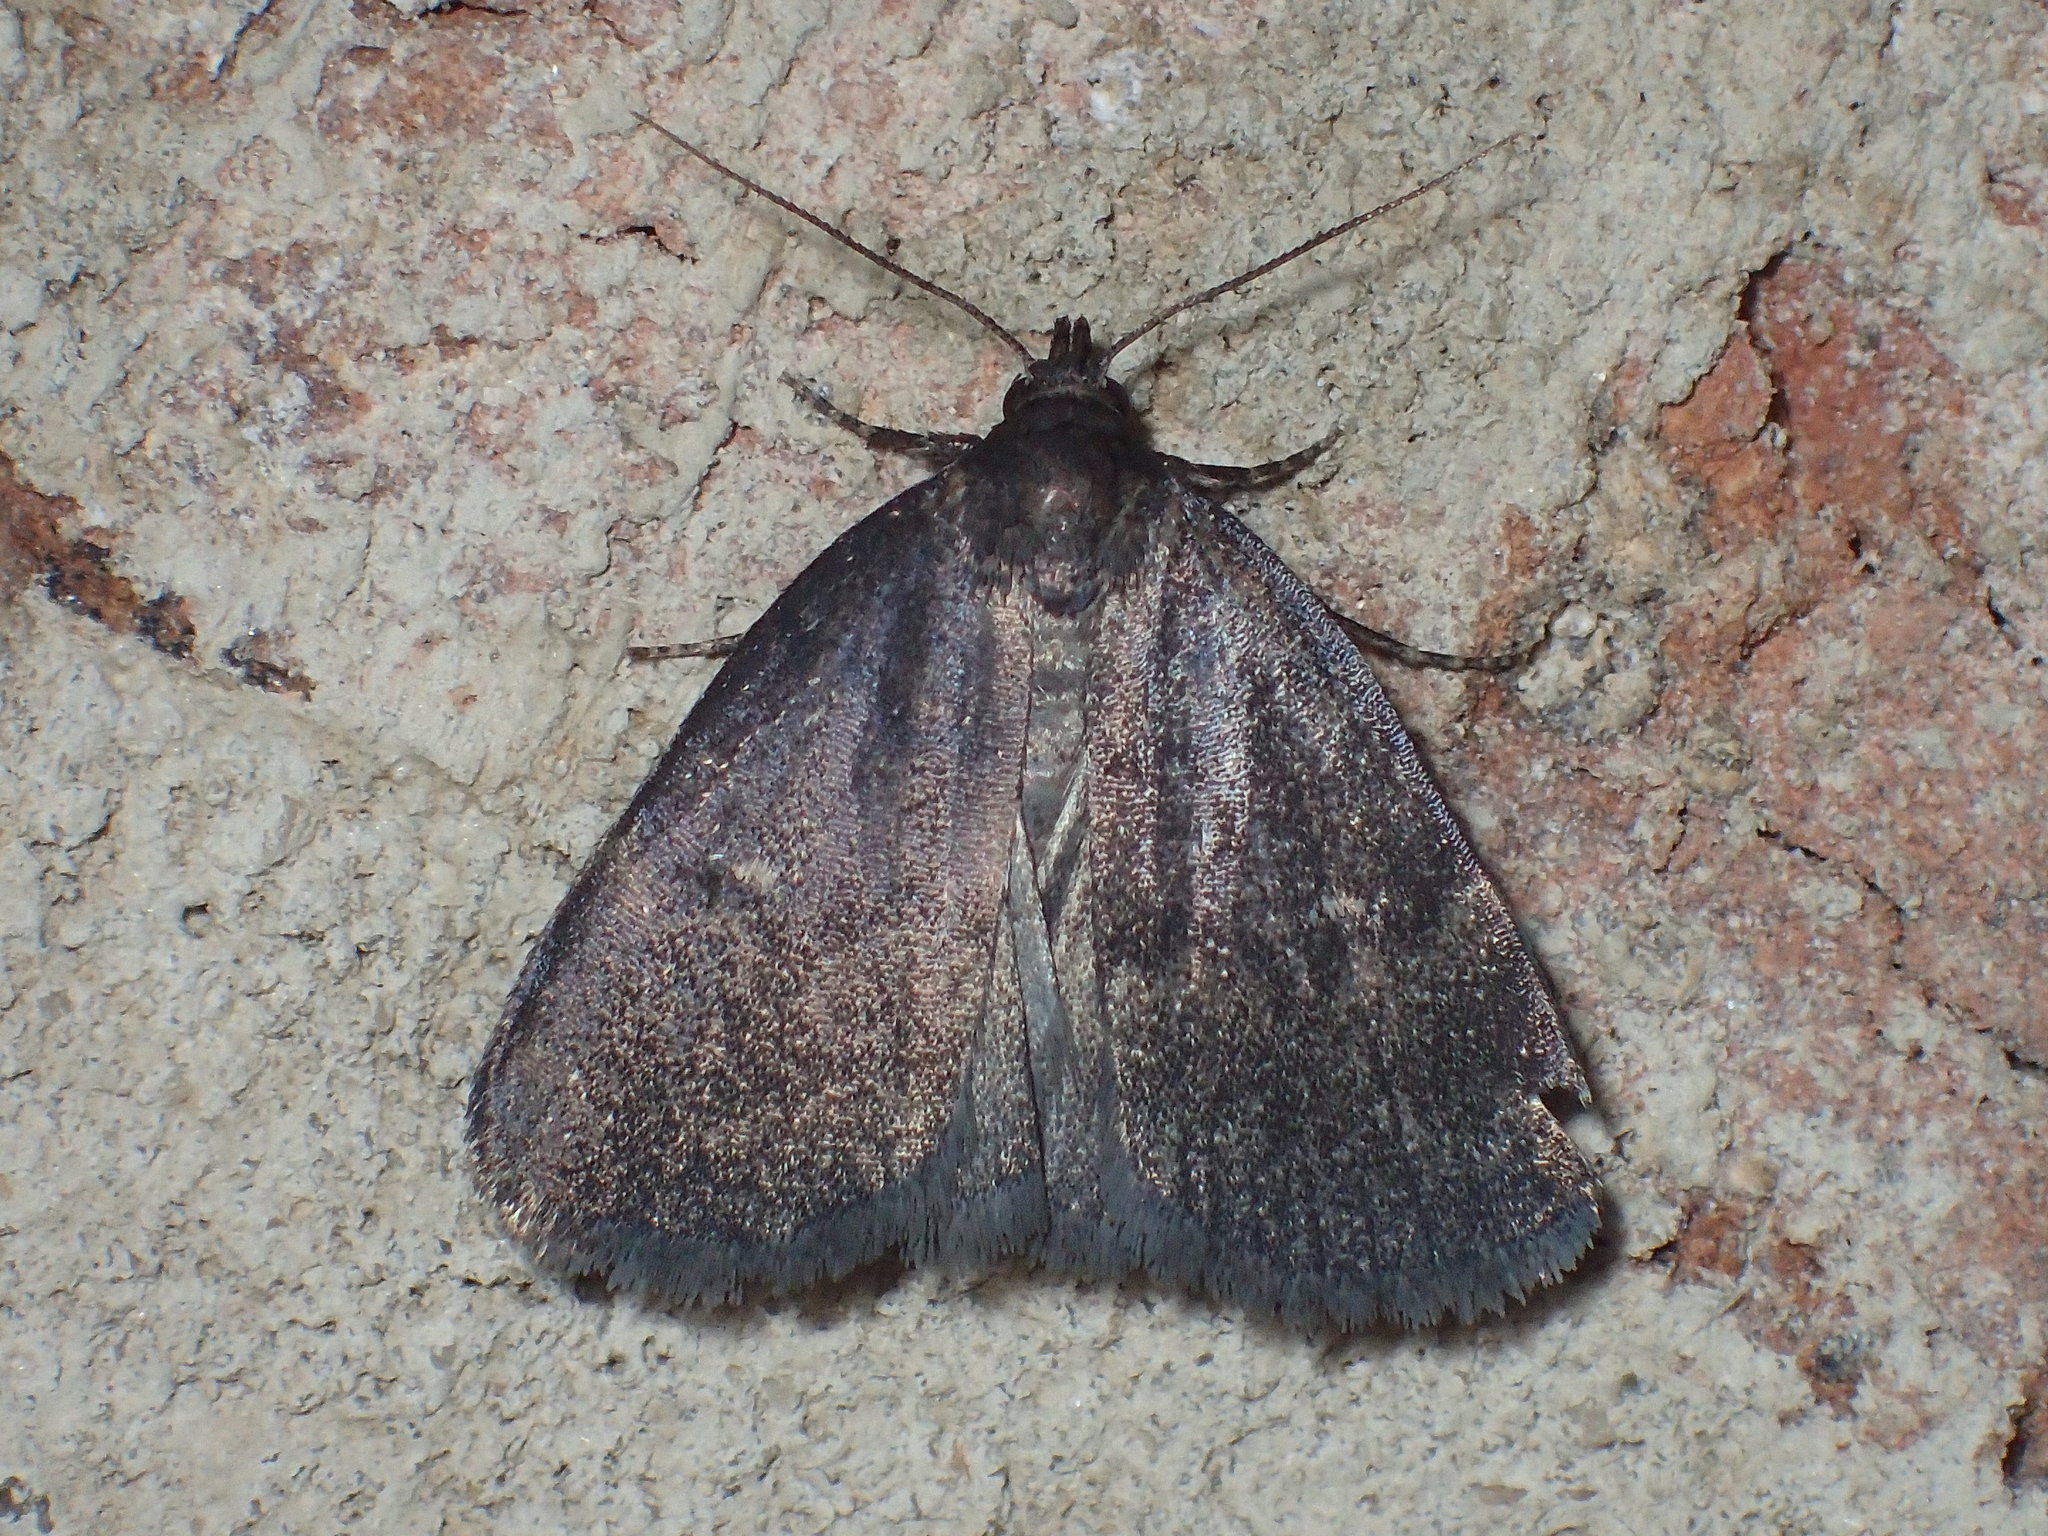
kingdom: Animalia
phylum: Arthropoda
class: Insecta
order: Lepidoptera
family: Erebidae
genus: Idia
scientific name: Idia rotundalis
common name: Rotund idia moth
